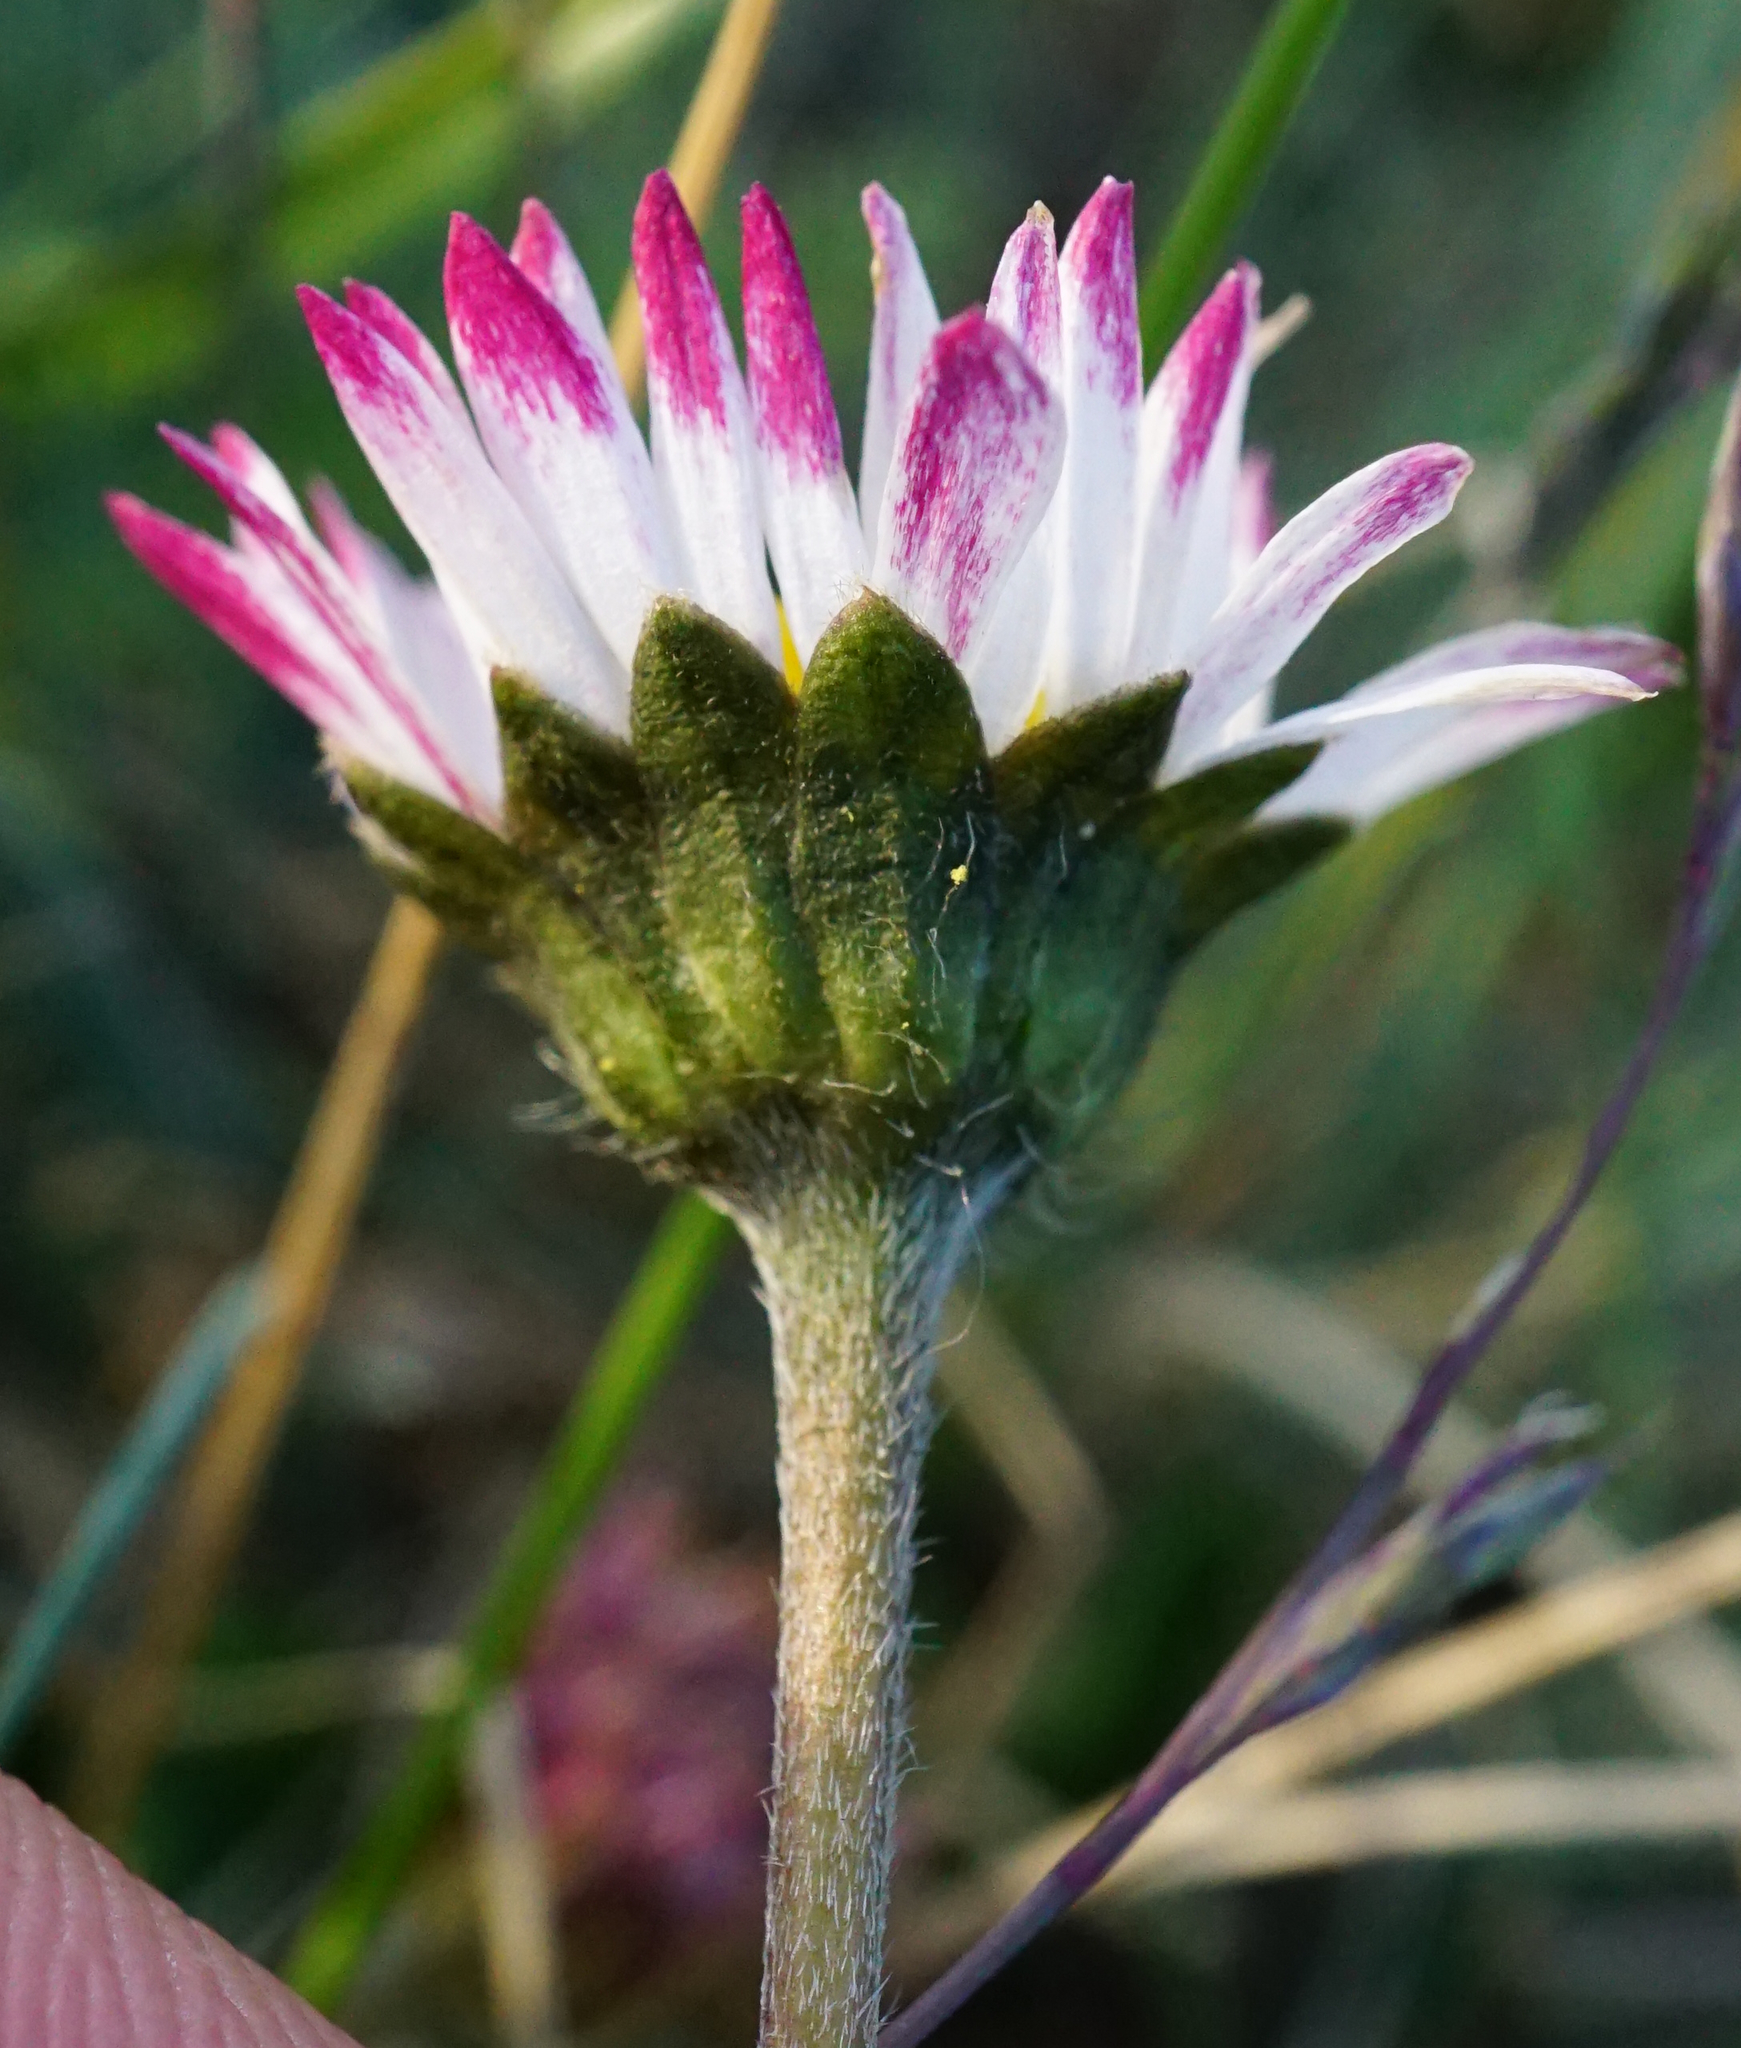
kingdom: Plantae
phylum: Tracheophyta
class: Magnoliopsida
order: Asterales
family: Asteraceae
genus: Bellis
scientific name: Bellis perennis
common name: Lawndaisy
